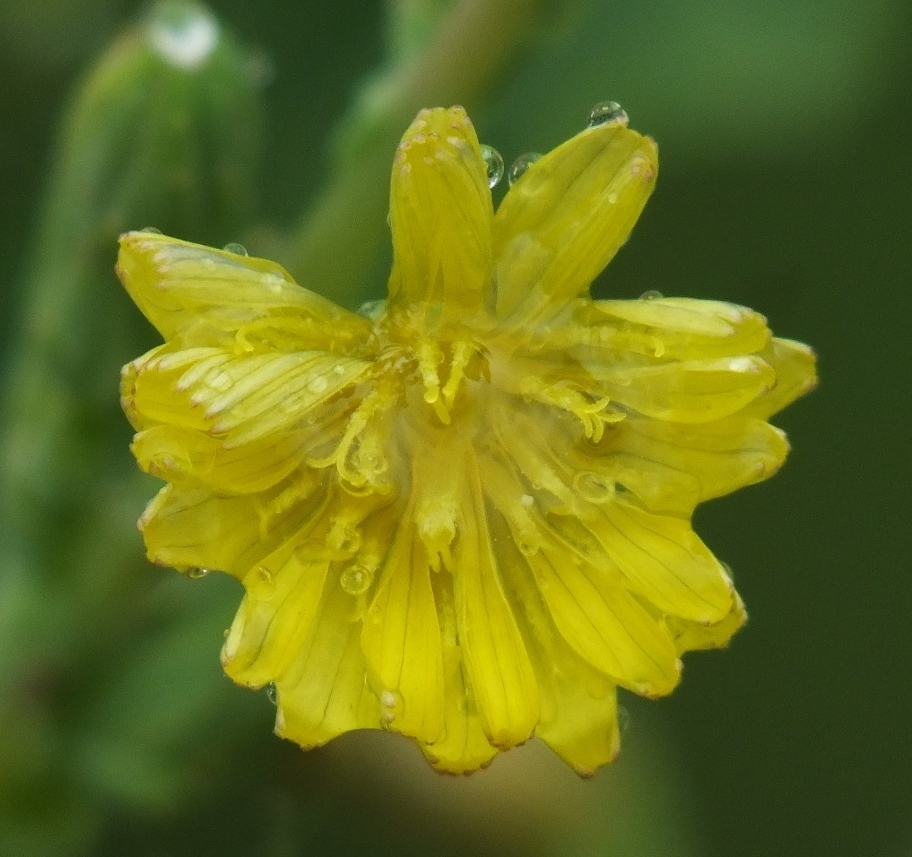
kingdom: Plantae
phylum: Tracheophyta
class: Magnoliopsida
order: Asterales
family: Asteraceae
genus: Lactuca
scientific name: Lactuca serriola
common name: Prickly lettuce
